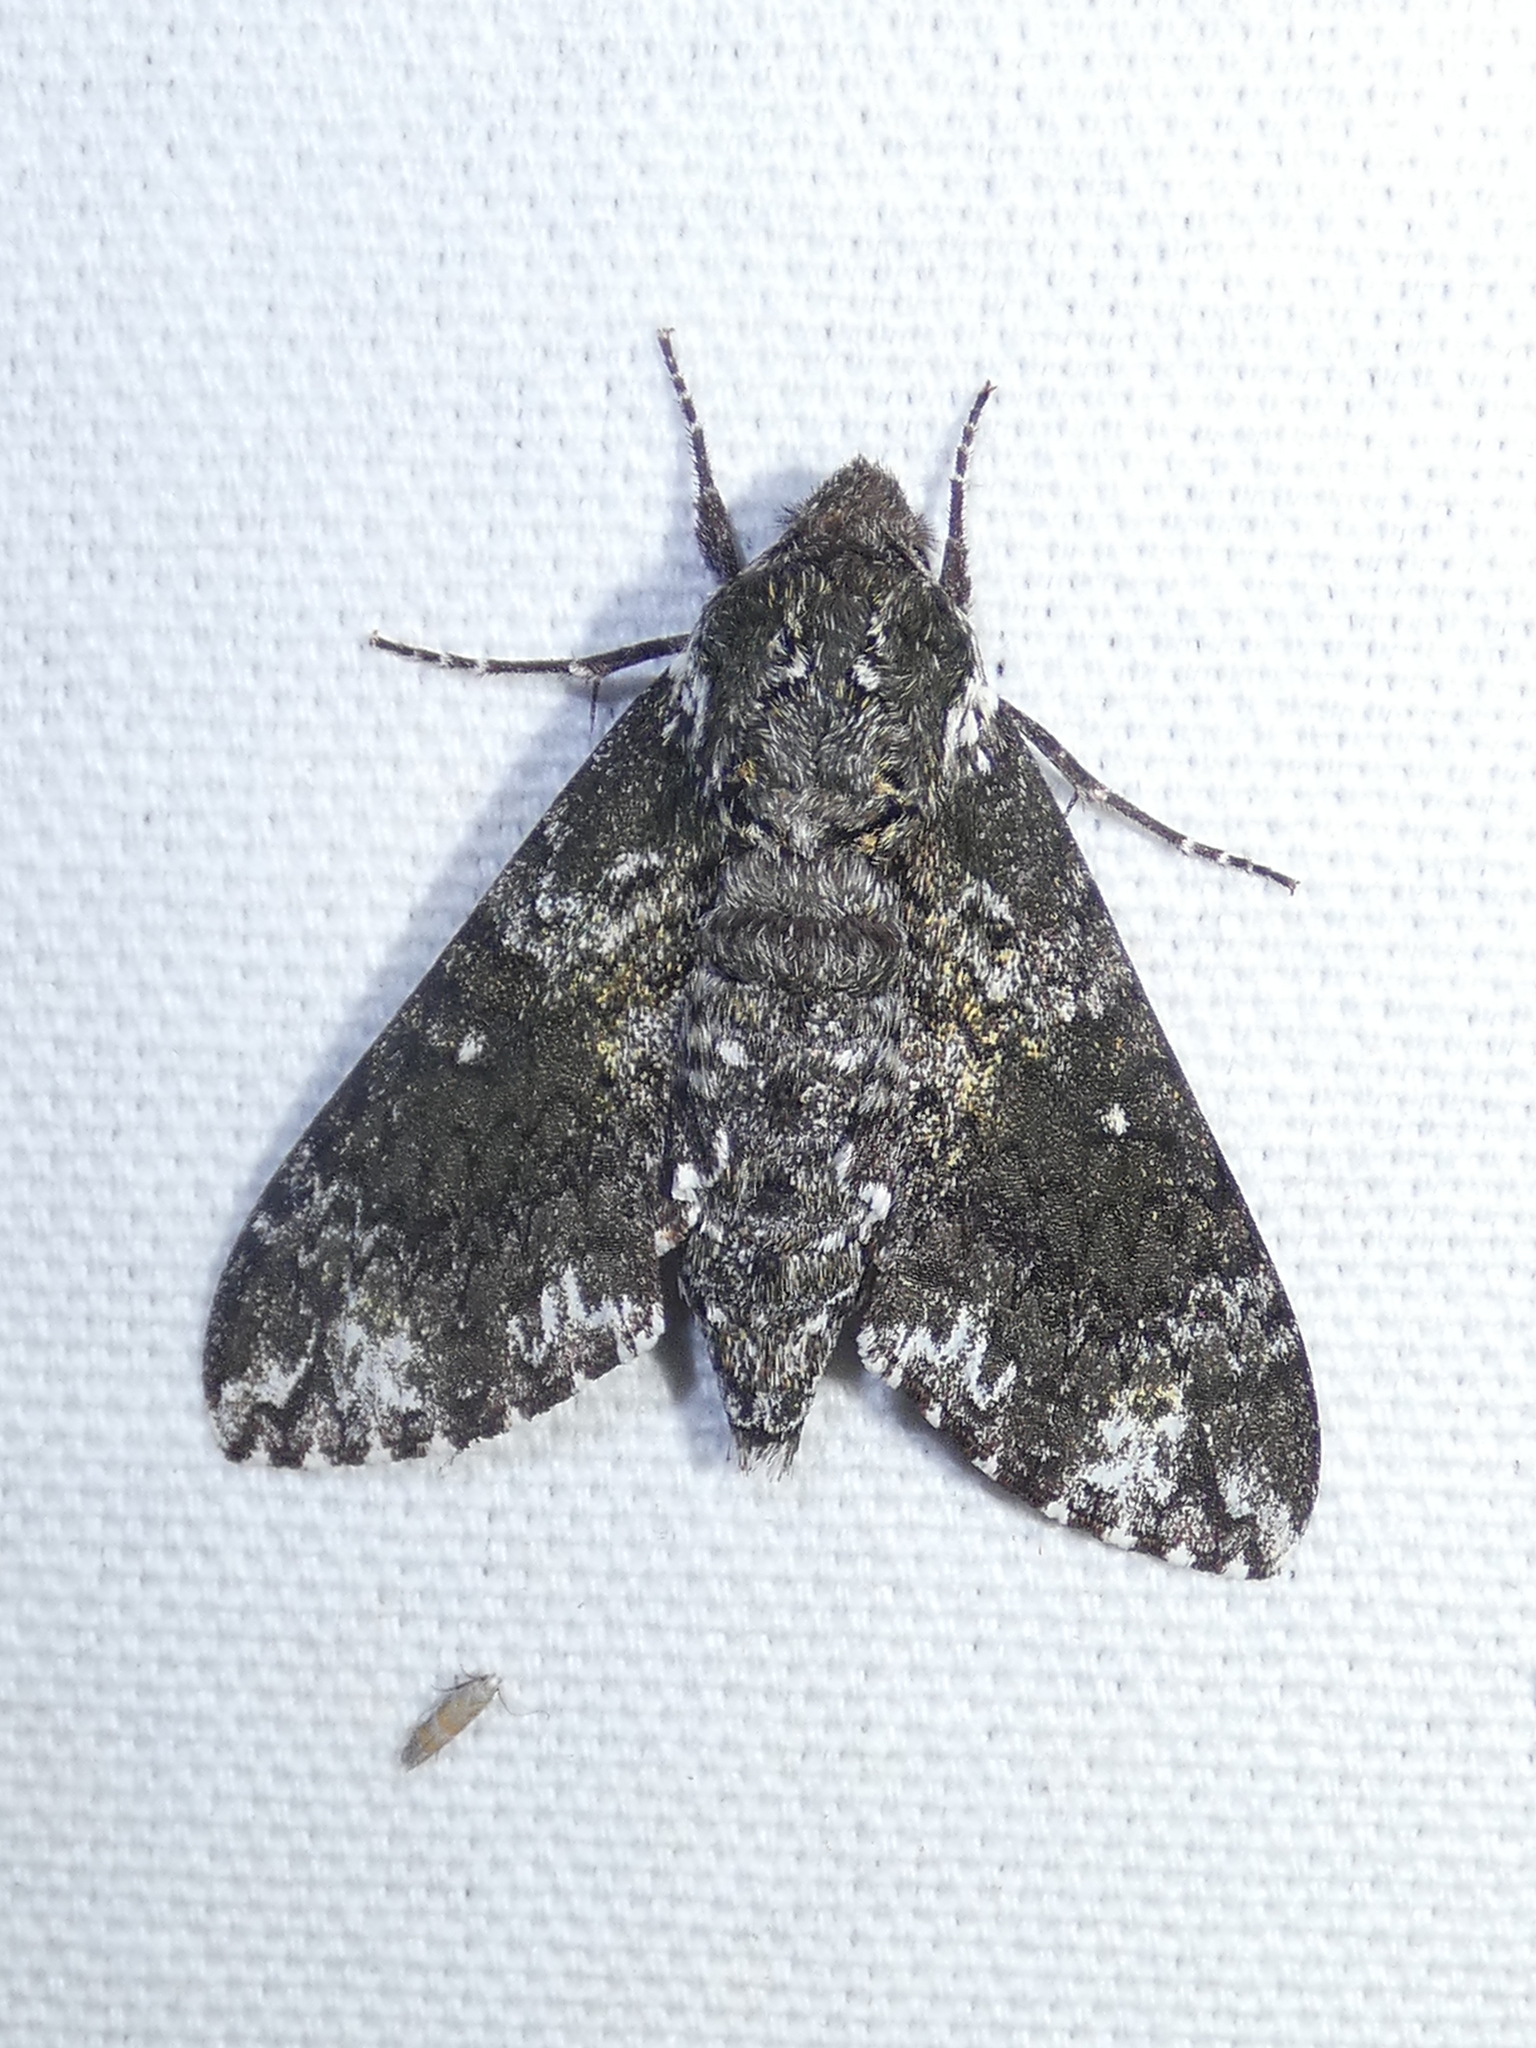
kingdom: Animalia
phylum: Arthropoda
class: Insecta
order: Lepidoptera
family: Sphingidae
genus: Dolba
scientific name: Dolba hyloeus
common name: Pawpaw sphinx
